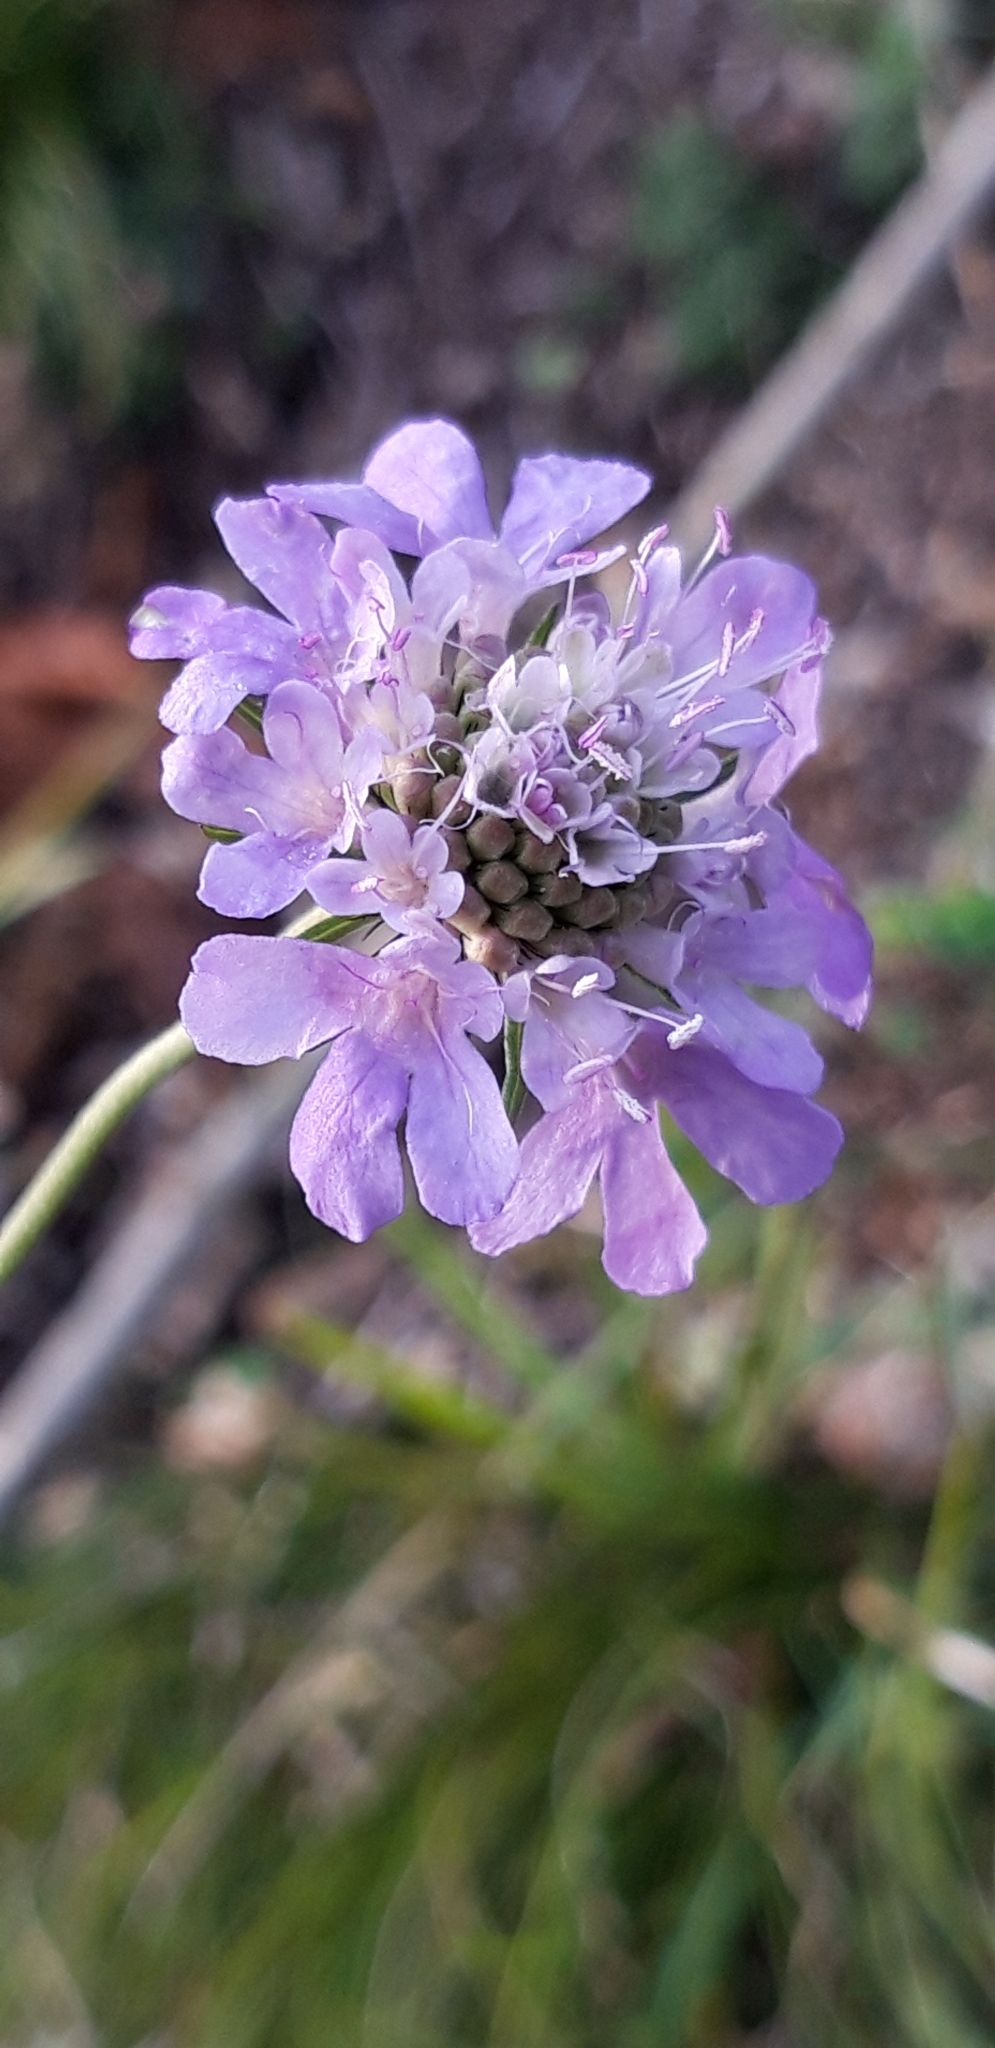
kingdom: Plantae
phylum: Tracheophyta
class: Magnoliopsida
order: Dipsacales
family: Caprifoliaceae
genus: Scabiosa
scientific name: Scabiosa columbaria
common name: Small scabious
